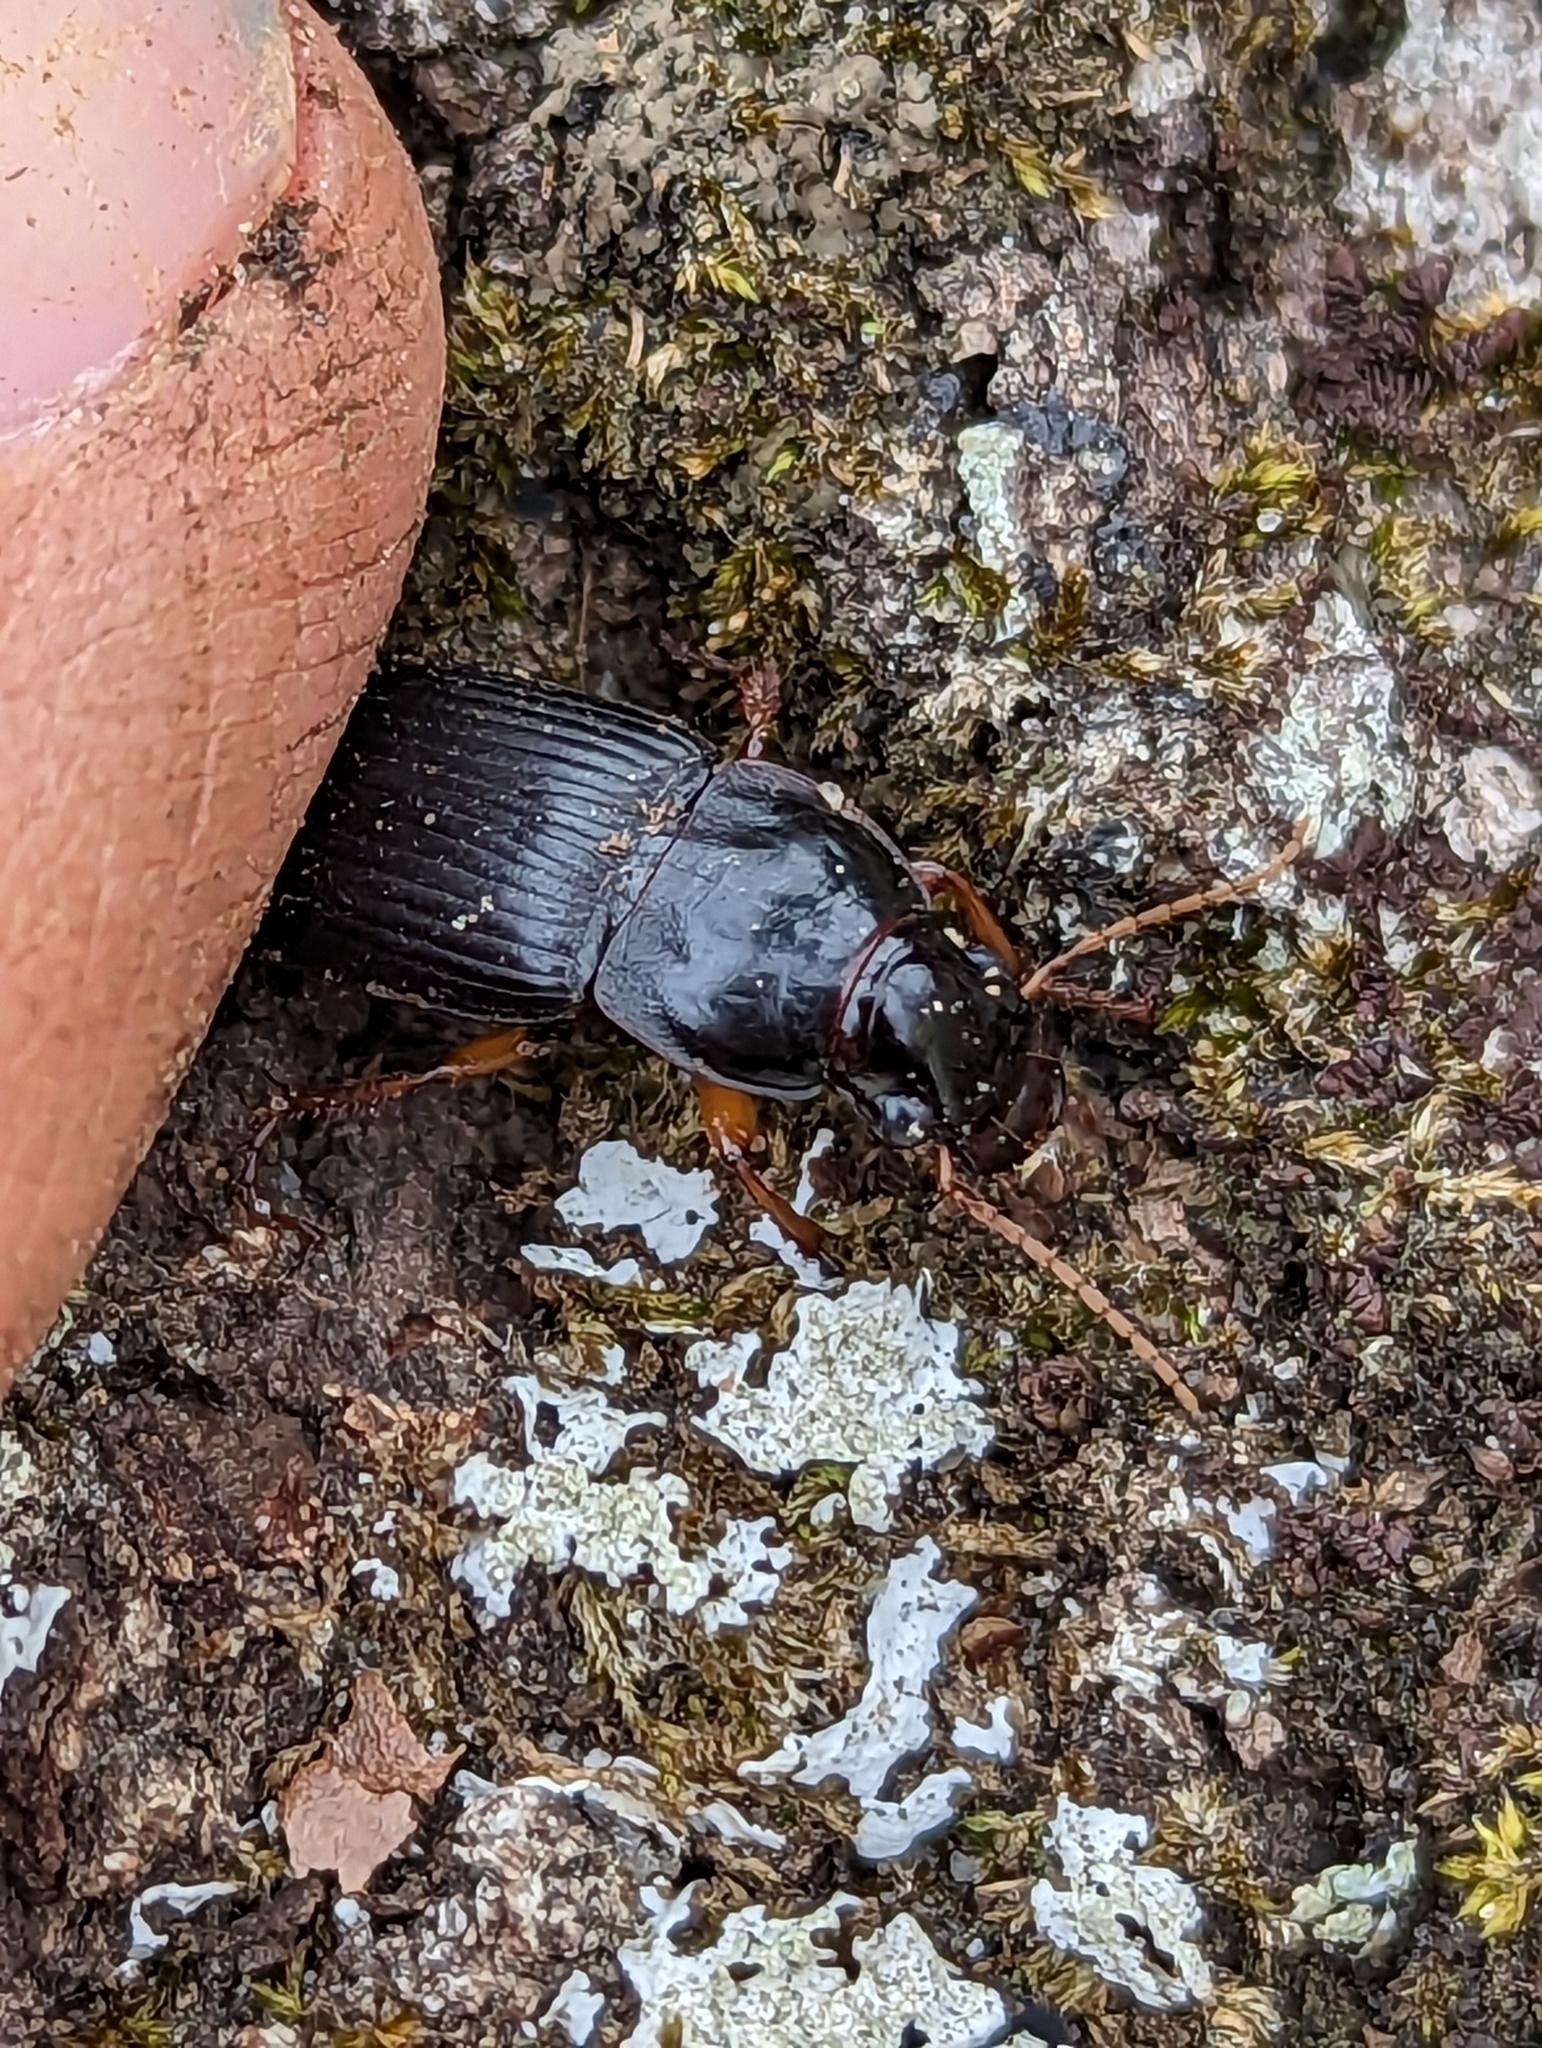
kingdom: Animalia
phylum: Arthropoda
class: Insecta
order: Coleoptera
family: Carabidae
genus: Harpalus
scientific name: Harpalus pensylvanicus
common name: Pennsylvania dingy ground beetle
